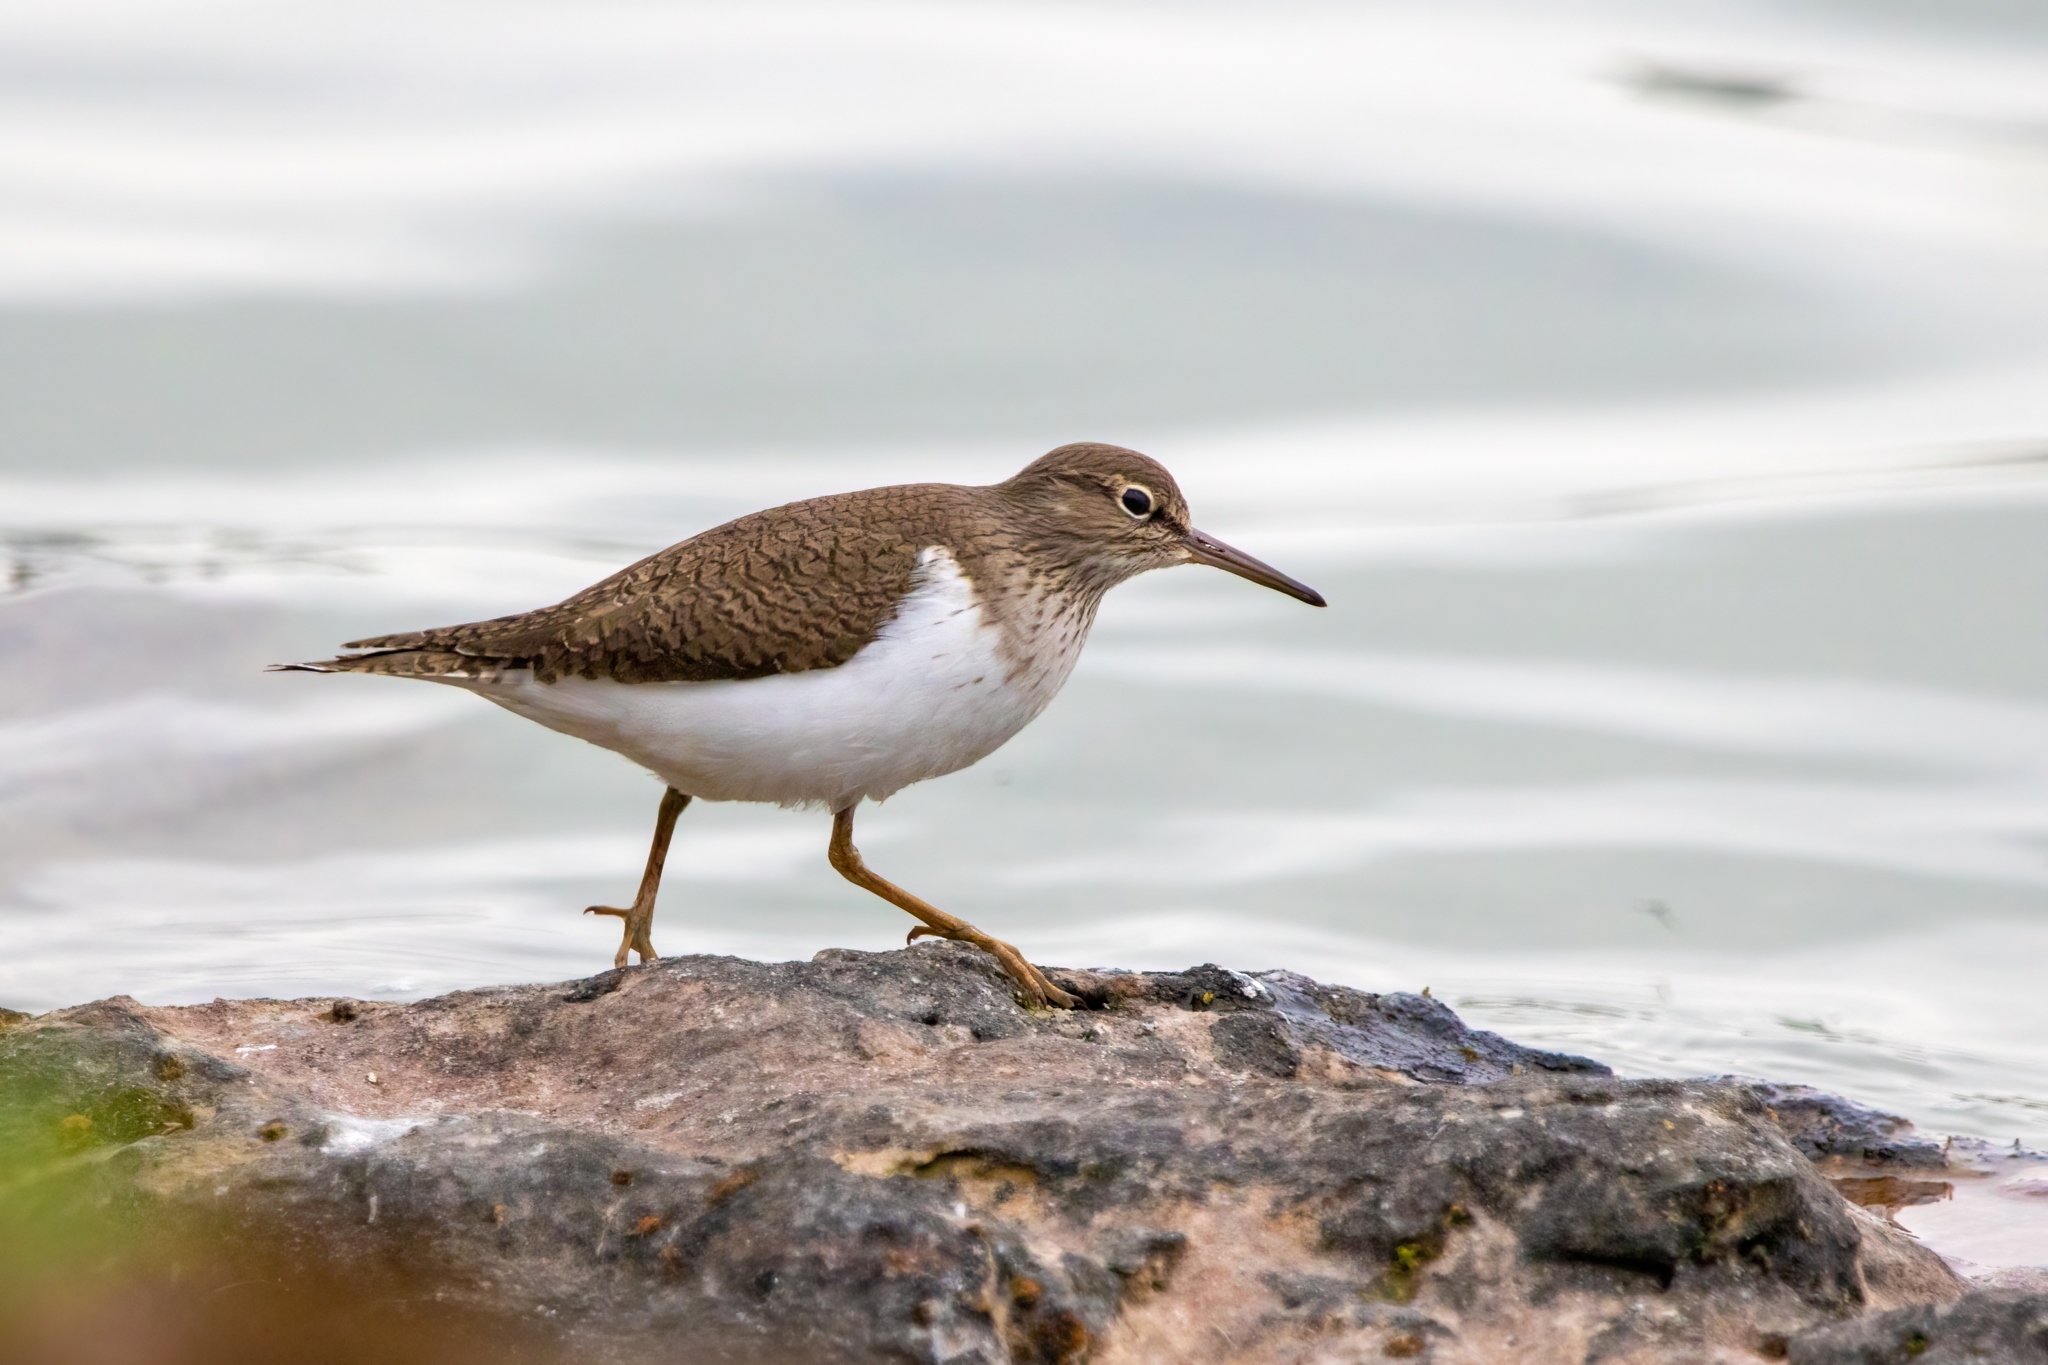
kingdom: Animalia
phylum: Chordata
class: Aves
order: Charadriiformes
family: Scolopacidae
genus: Actitis
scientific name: Actitis hypoleucos
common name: Common sandpiper
